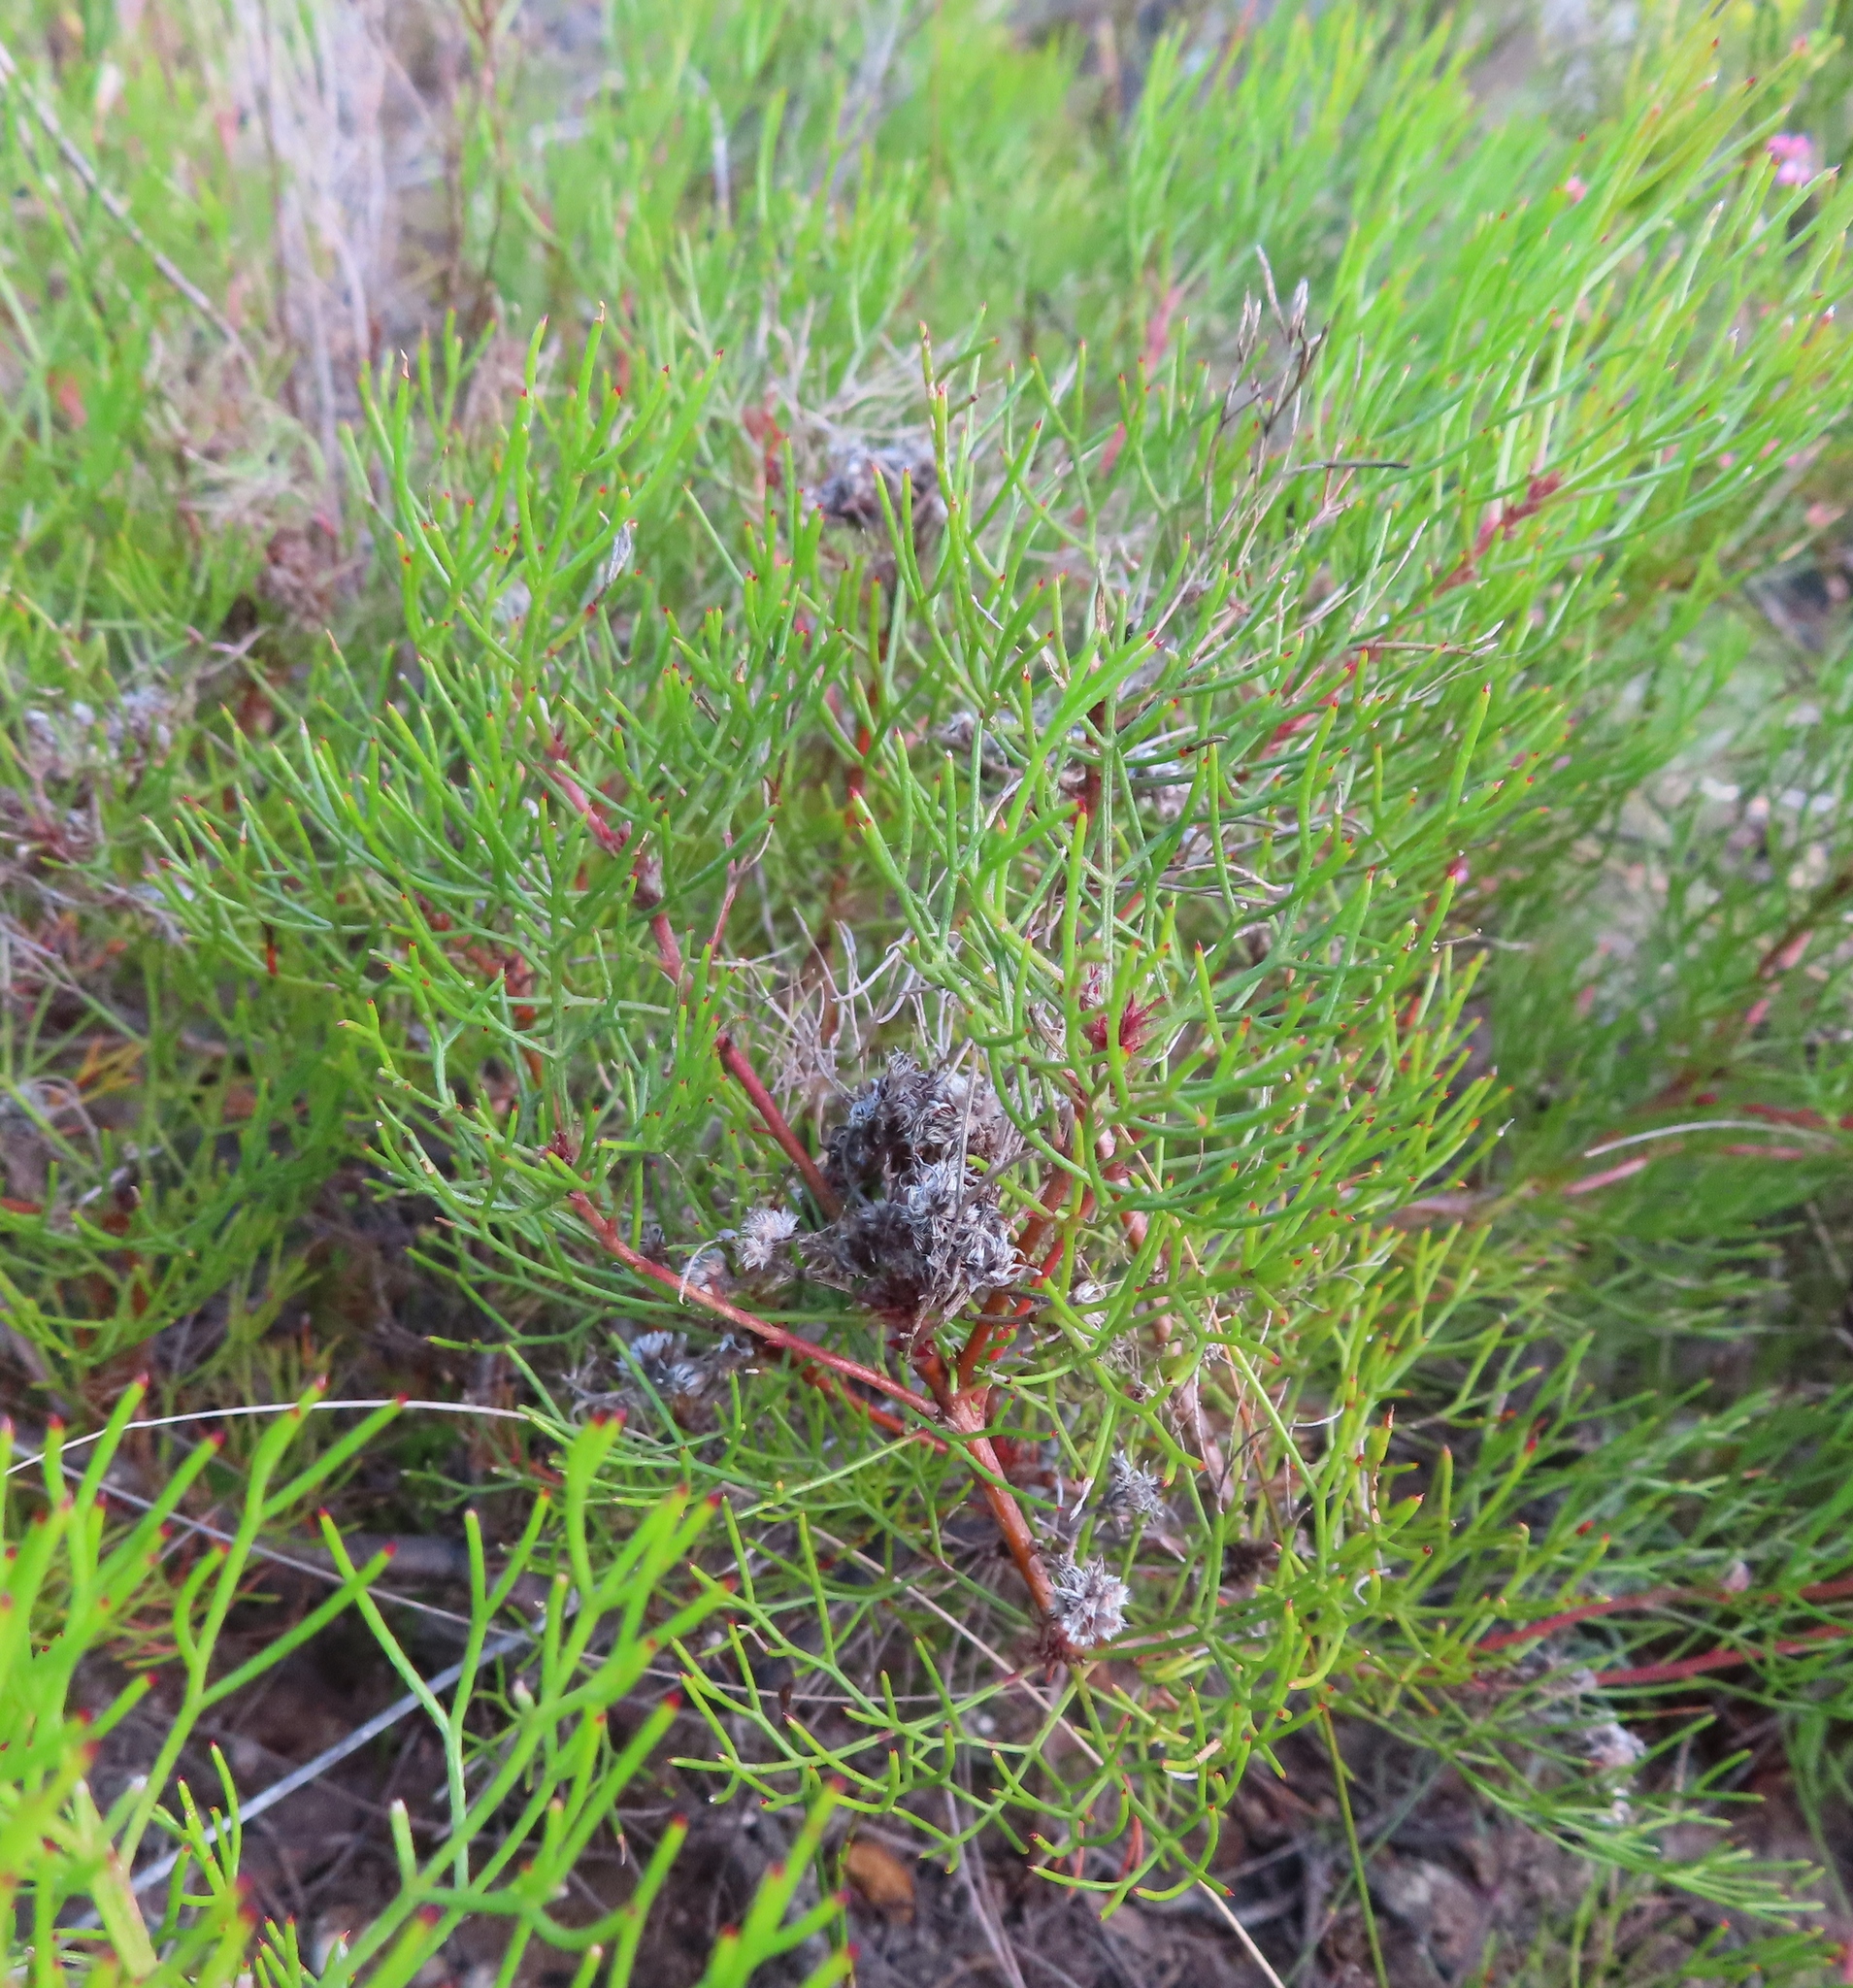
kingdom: Plantae
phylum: Tracheophyta
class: Magnoliopsida
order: Proteales
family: Proteaceae
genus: Serruria
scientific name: Serruria fasciflora
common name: Common pin spiderhead
